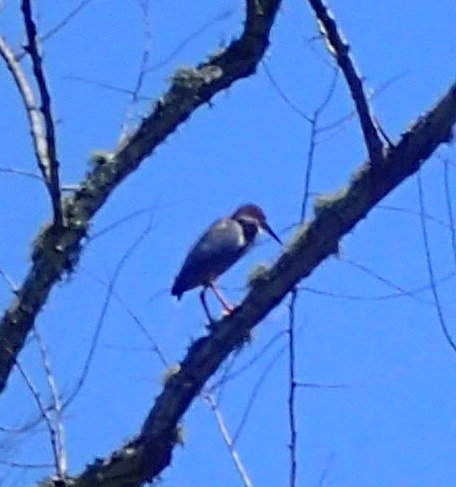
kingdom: Animalia
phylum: Chordata
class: Aves
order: Pelecaniformes
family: Ardeidae
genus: Butorides
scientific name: Butorides virescens
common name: Green heron
